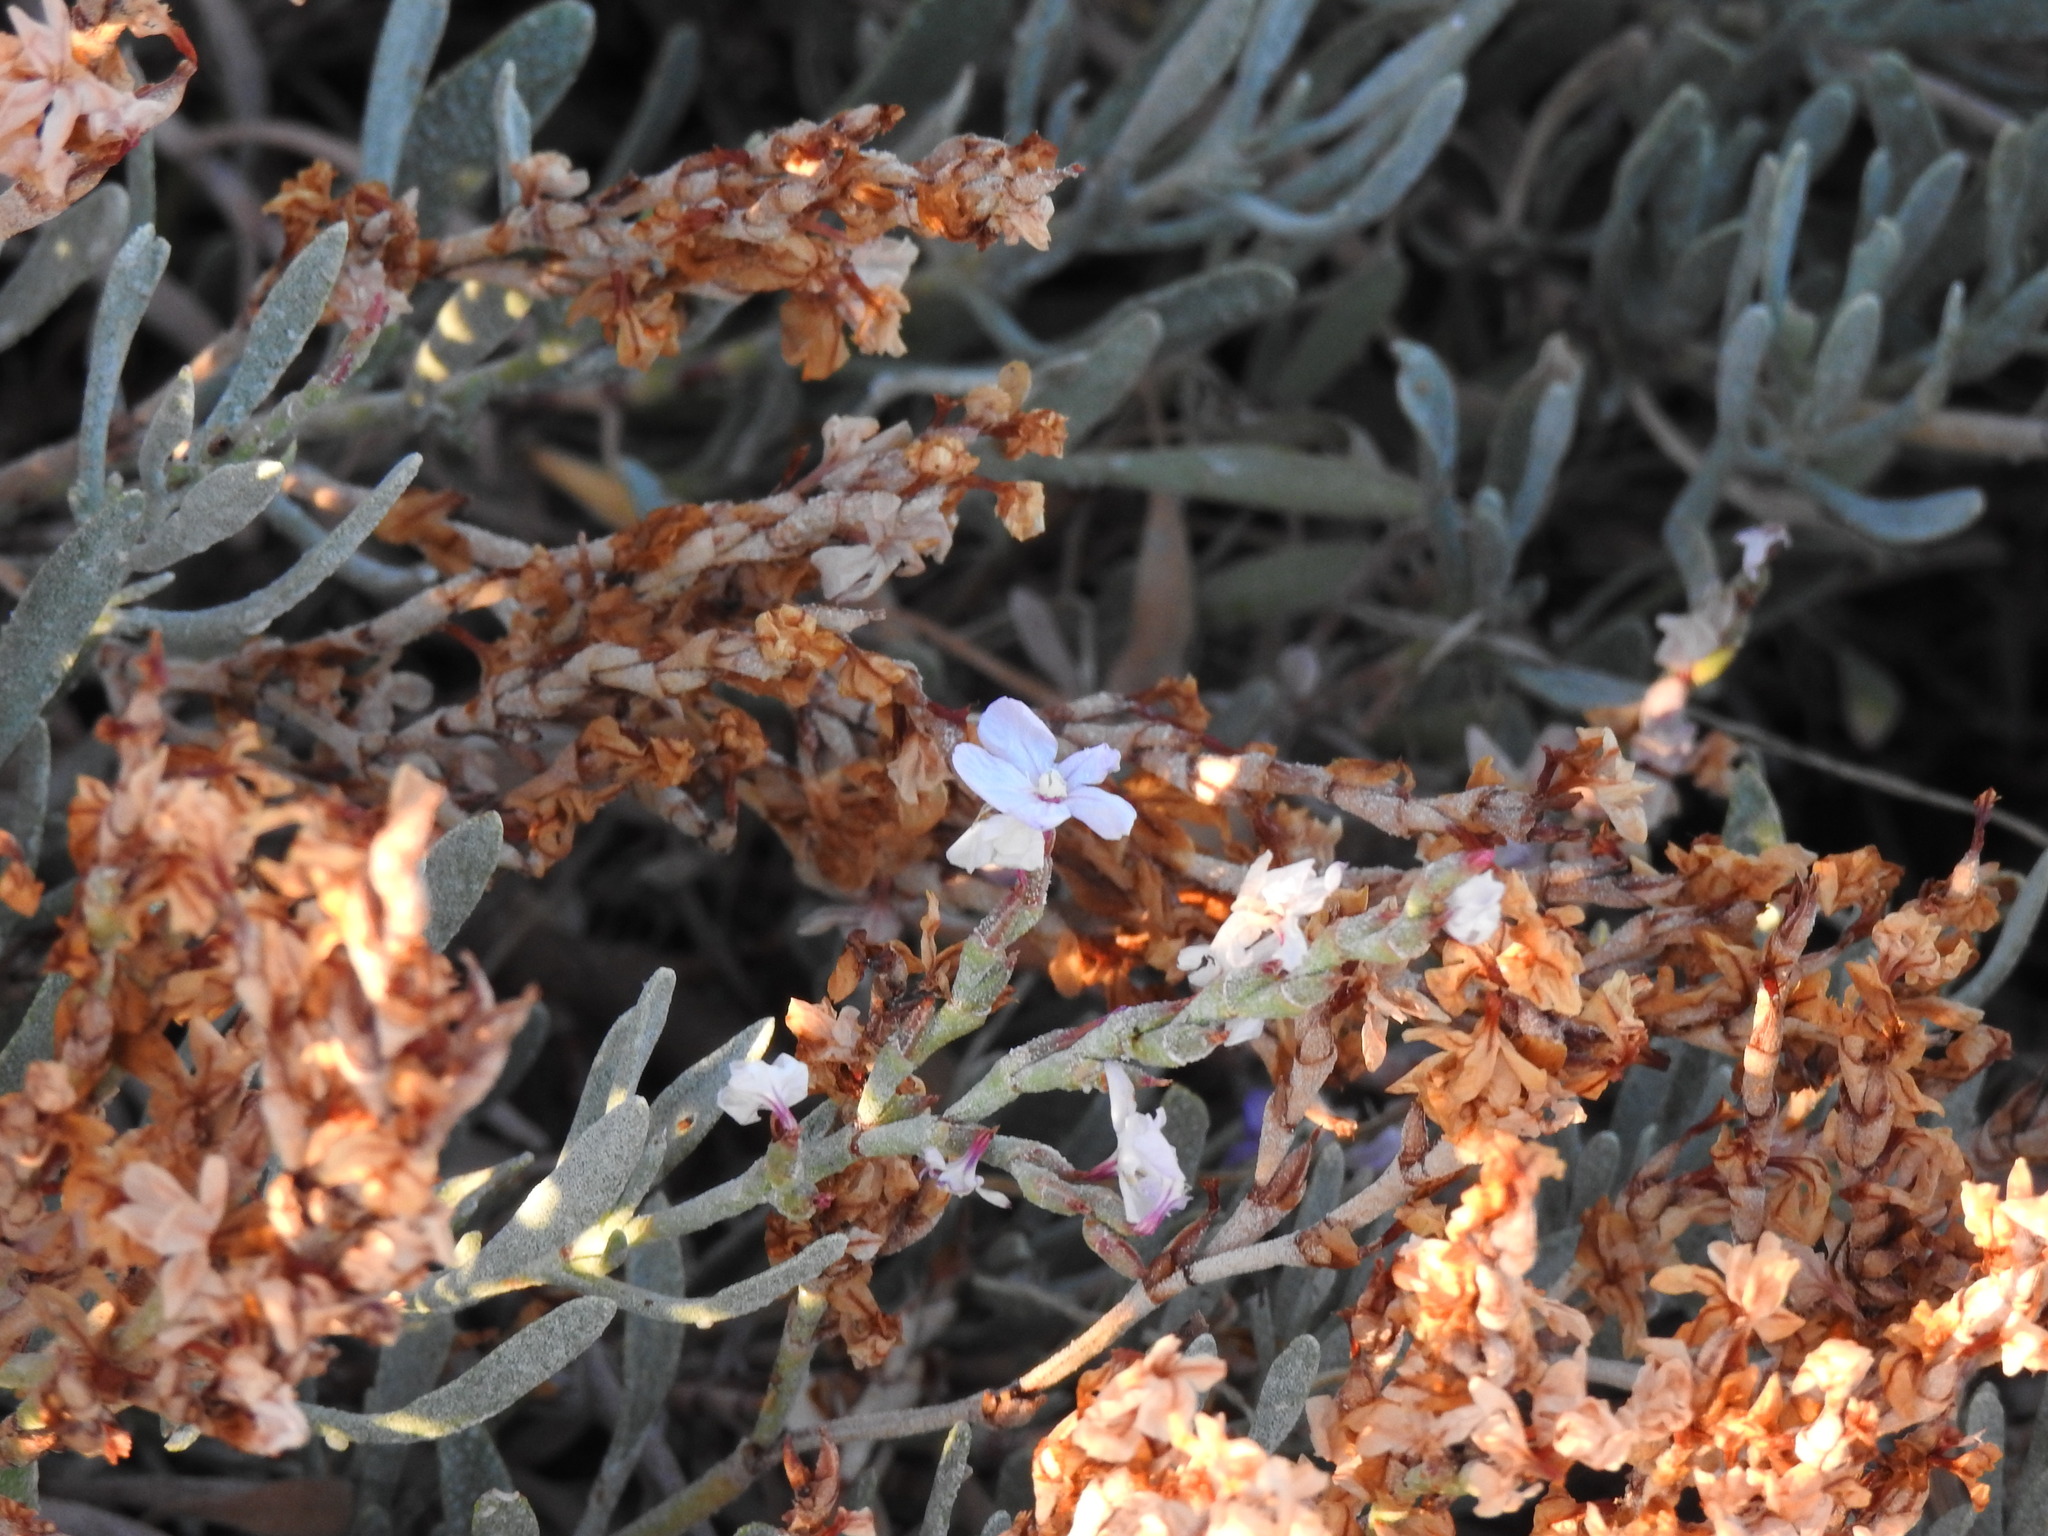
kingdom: Plantae
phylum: Tracheophyta
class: Magnoliopsida
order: Caryophyllales
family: Plumbaginaceae
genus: Limoniastrum
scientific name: Limoniastrum monopetalum
